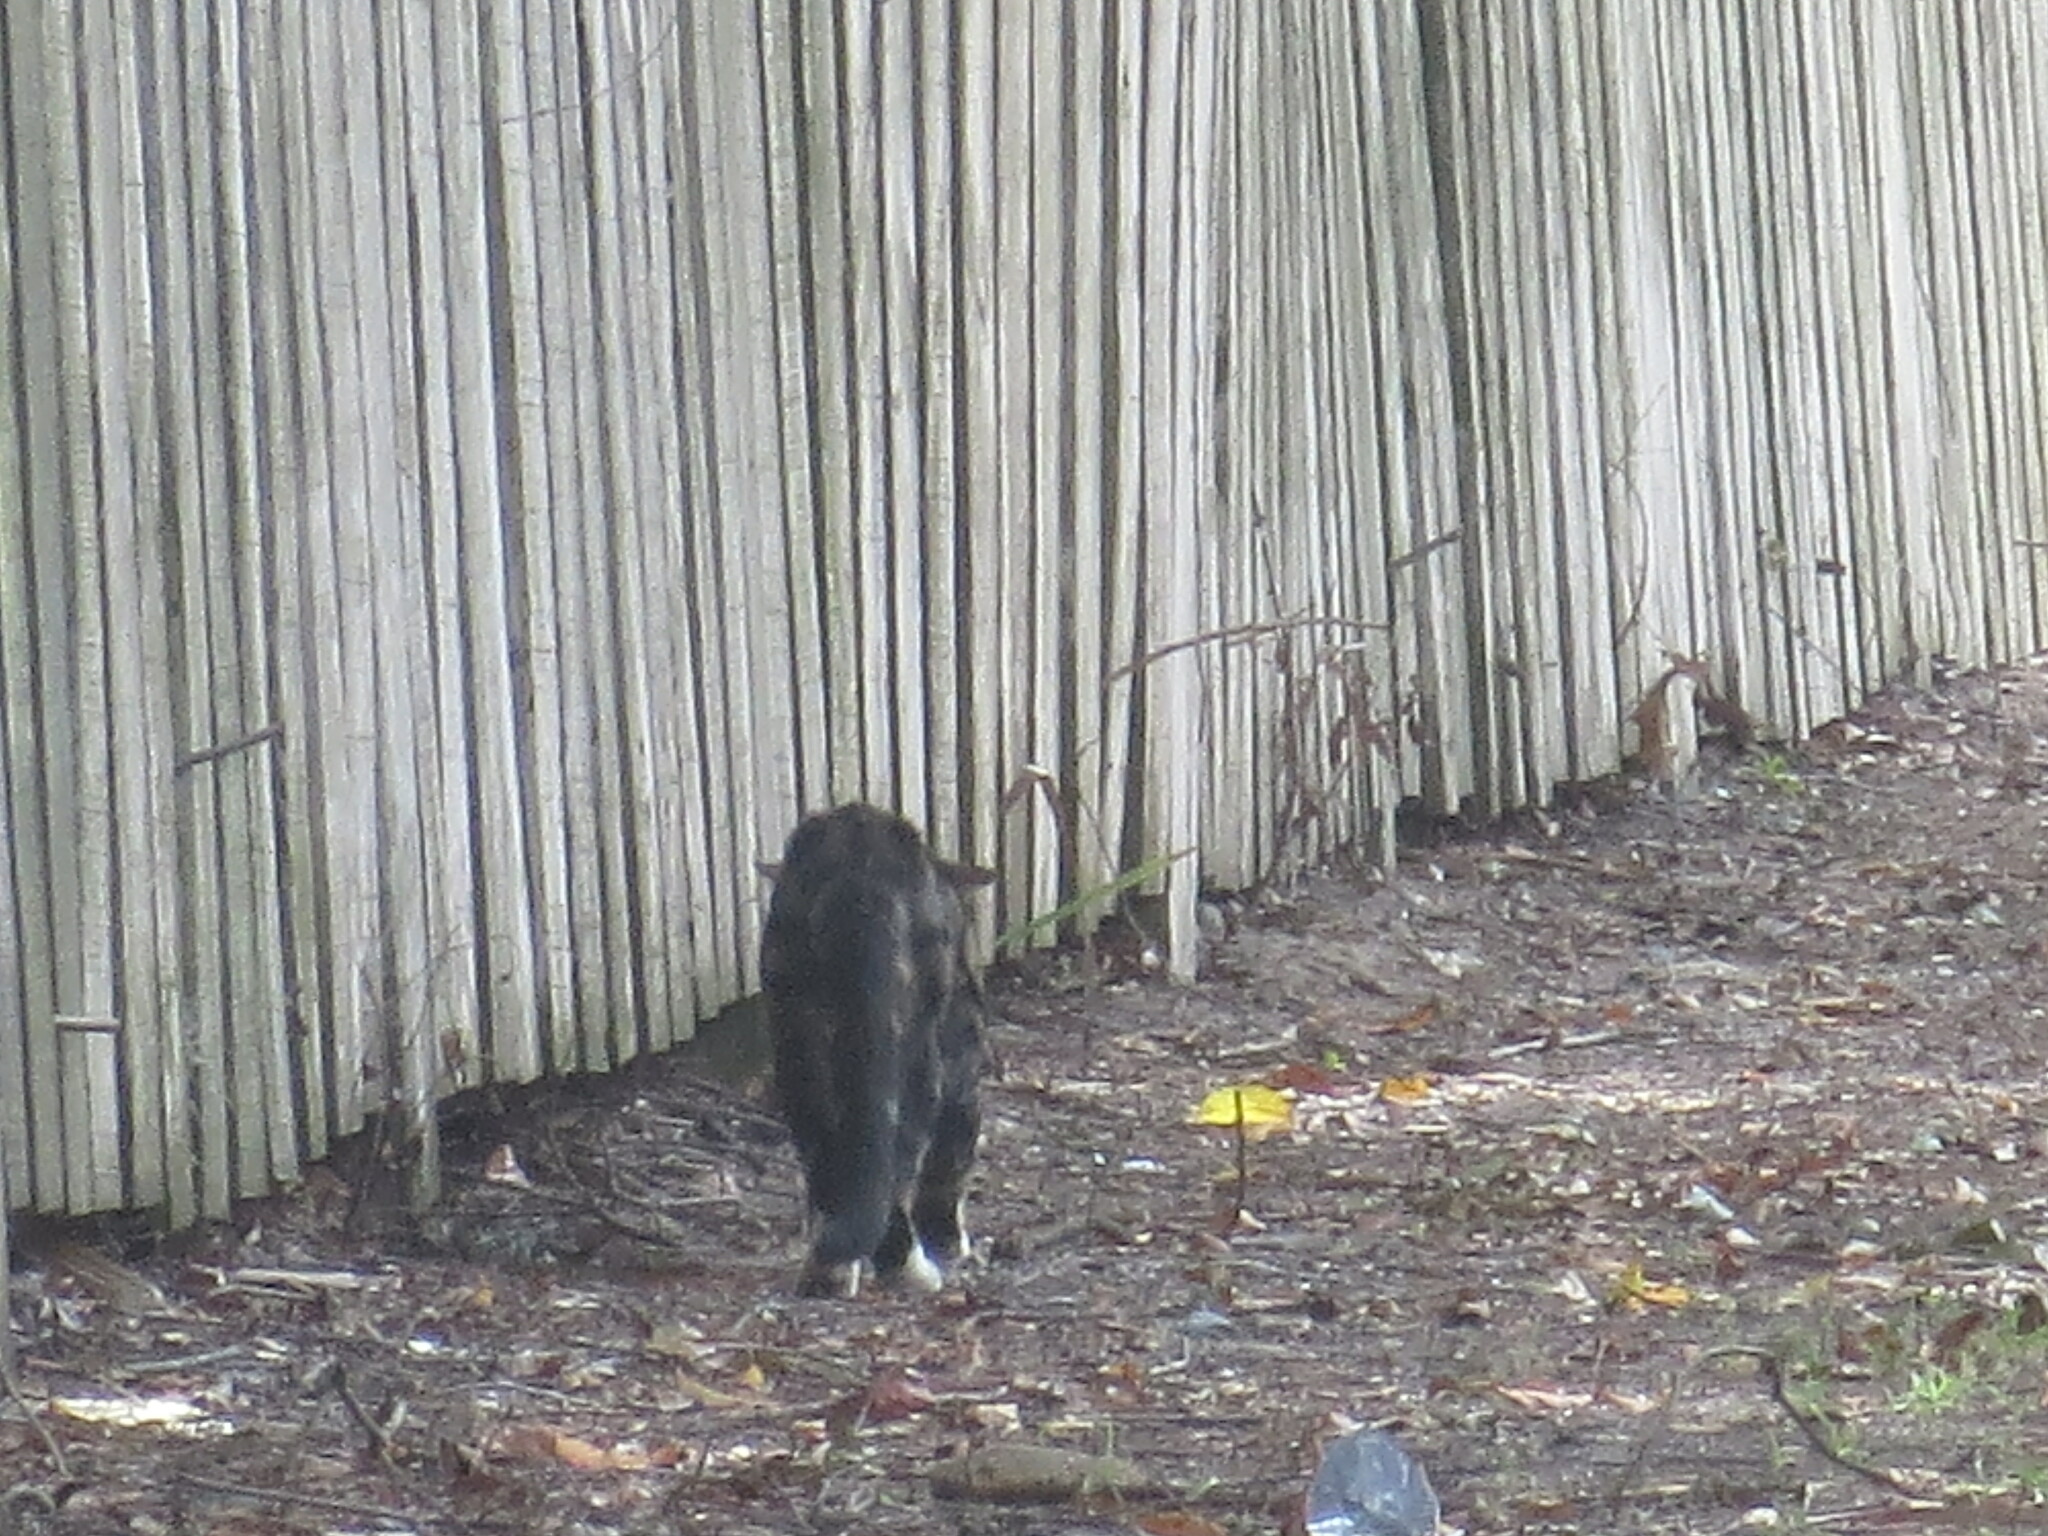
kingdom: Animalia
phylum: Chordata
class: Mammalia
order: Carnivora
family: Felidae
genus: Felis
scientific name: Felis catus
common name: Domestic cat
